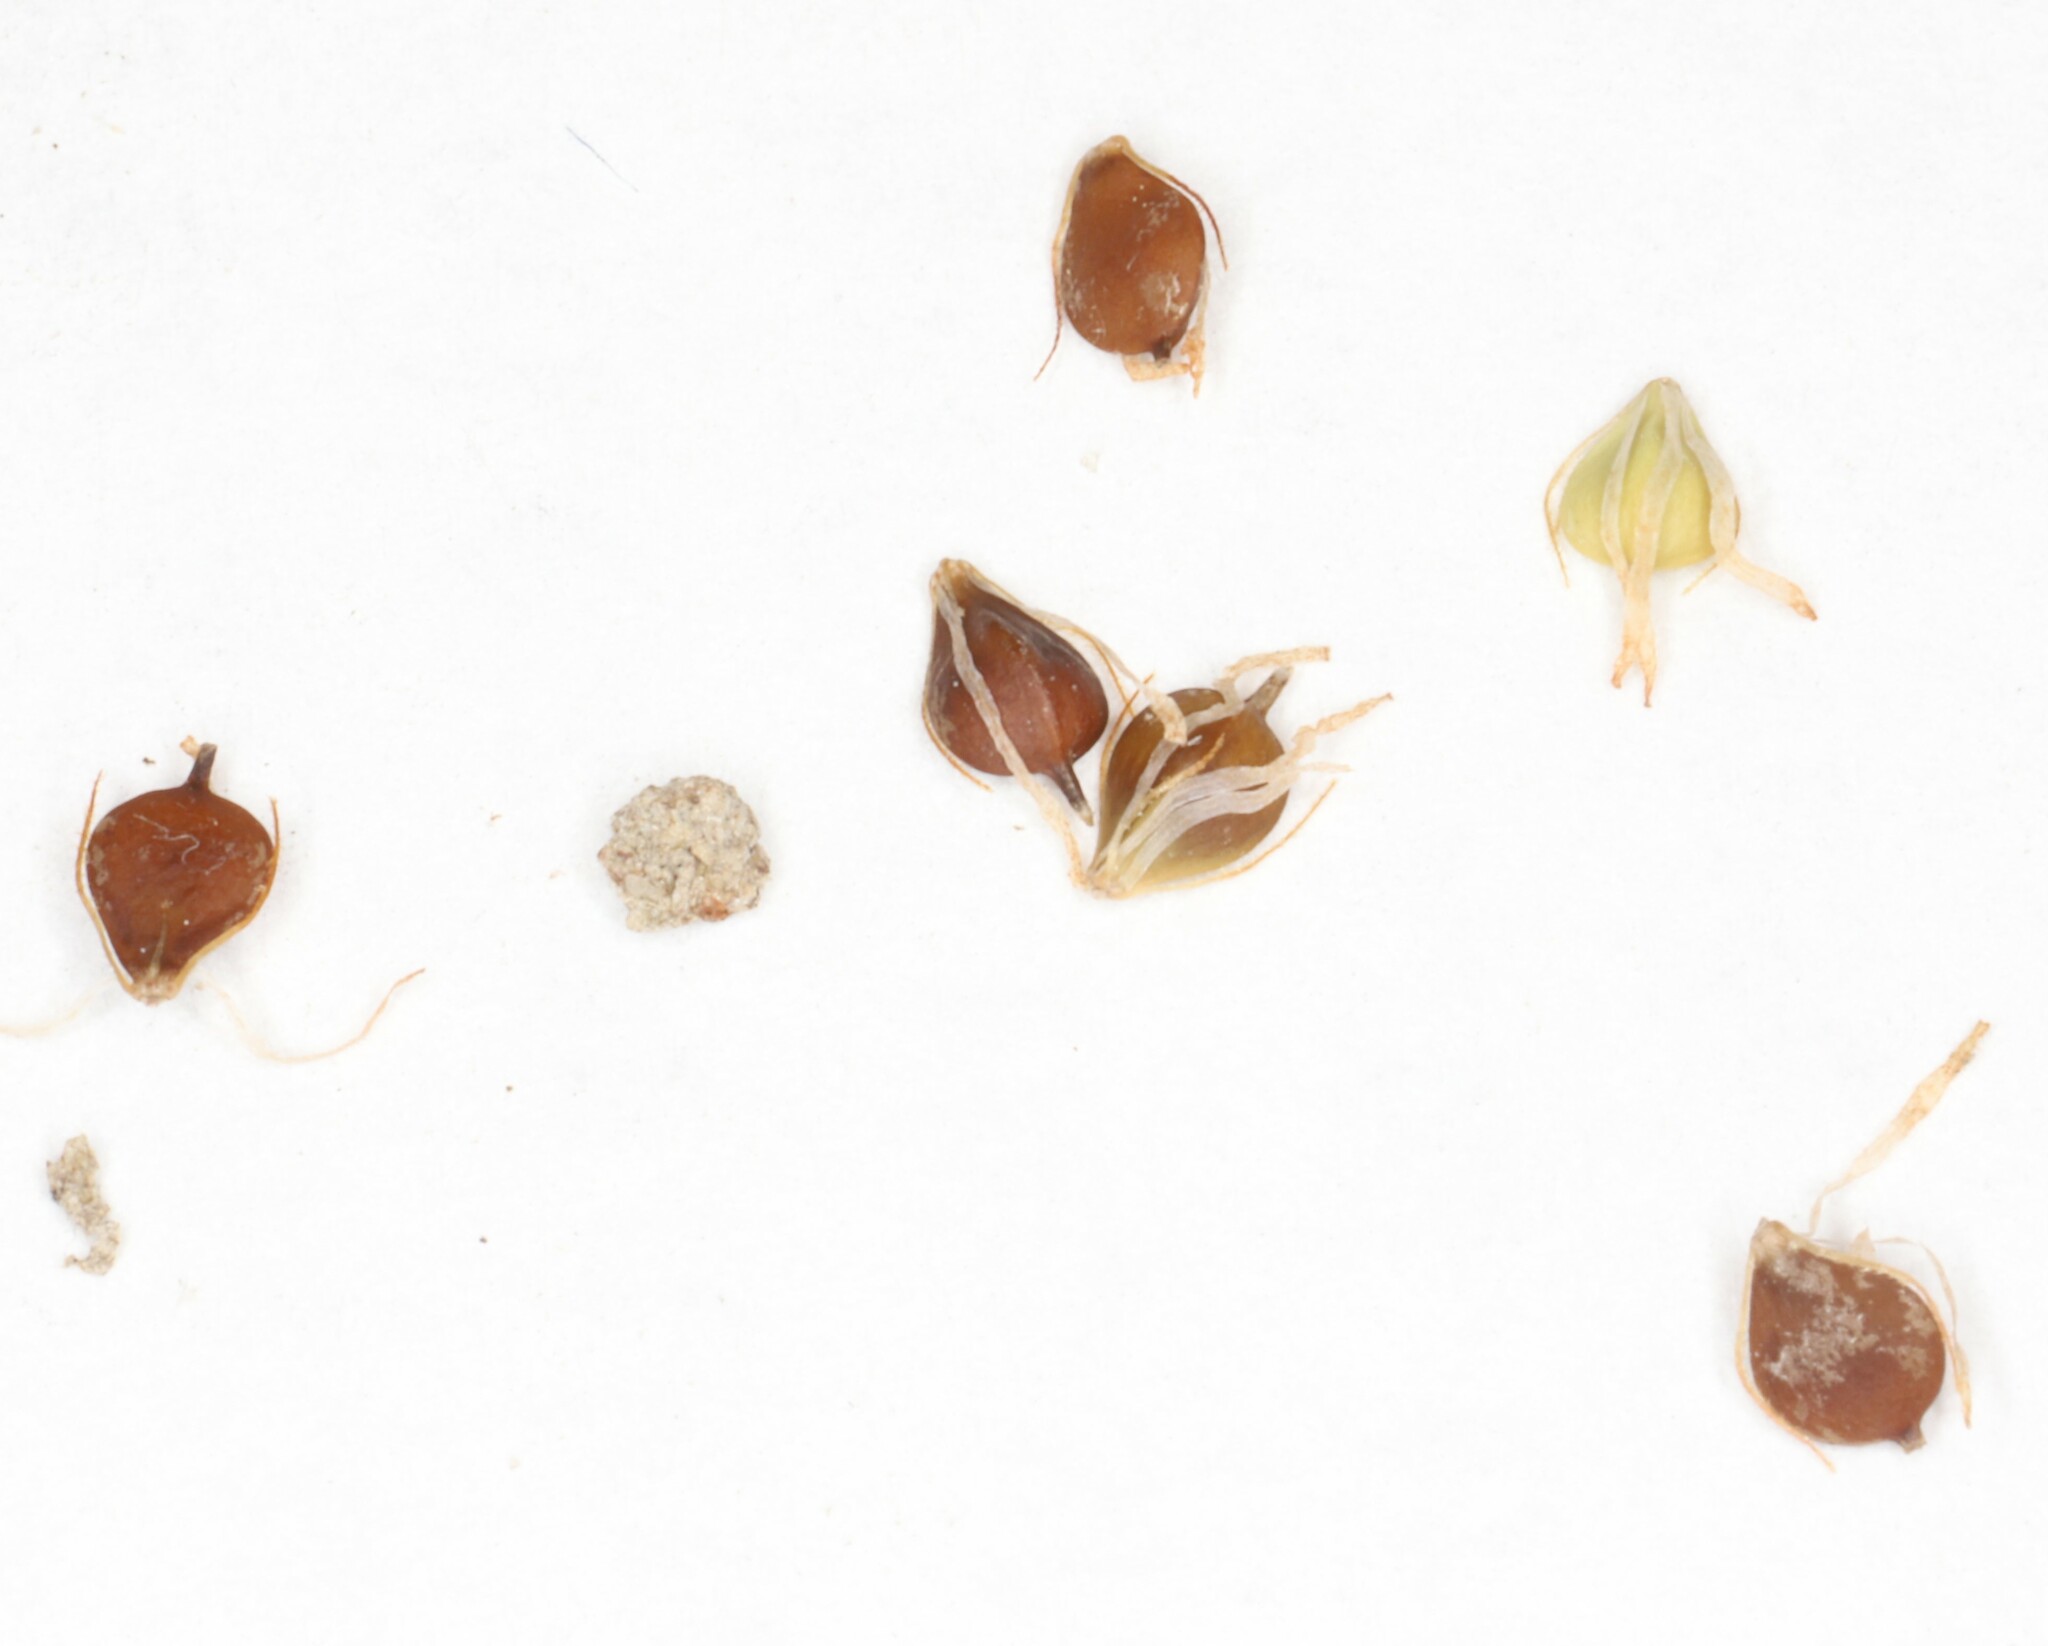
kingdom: Plantae
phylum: Tracheophyta
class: Liliopsida
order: Poales
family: Cyperaceae
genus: Schoenoplectus
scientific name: Schoenoplectus heterochaetus
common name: Pale great bulrush
